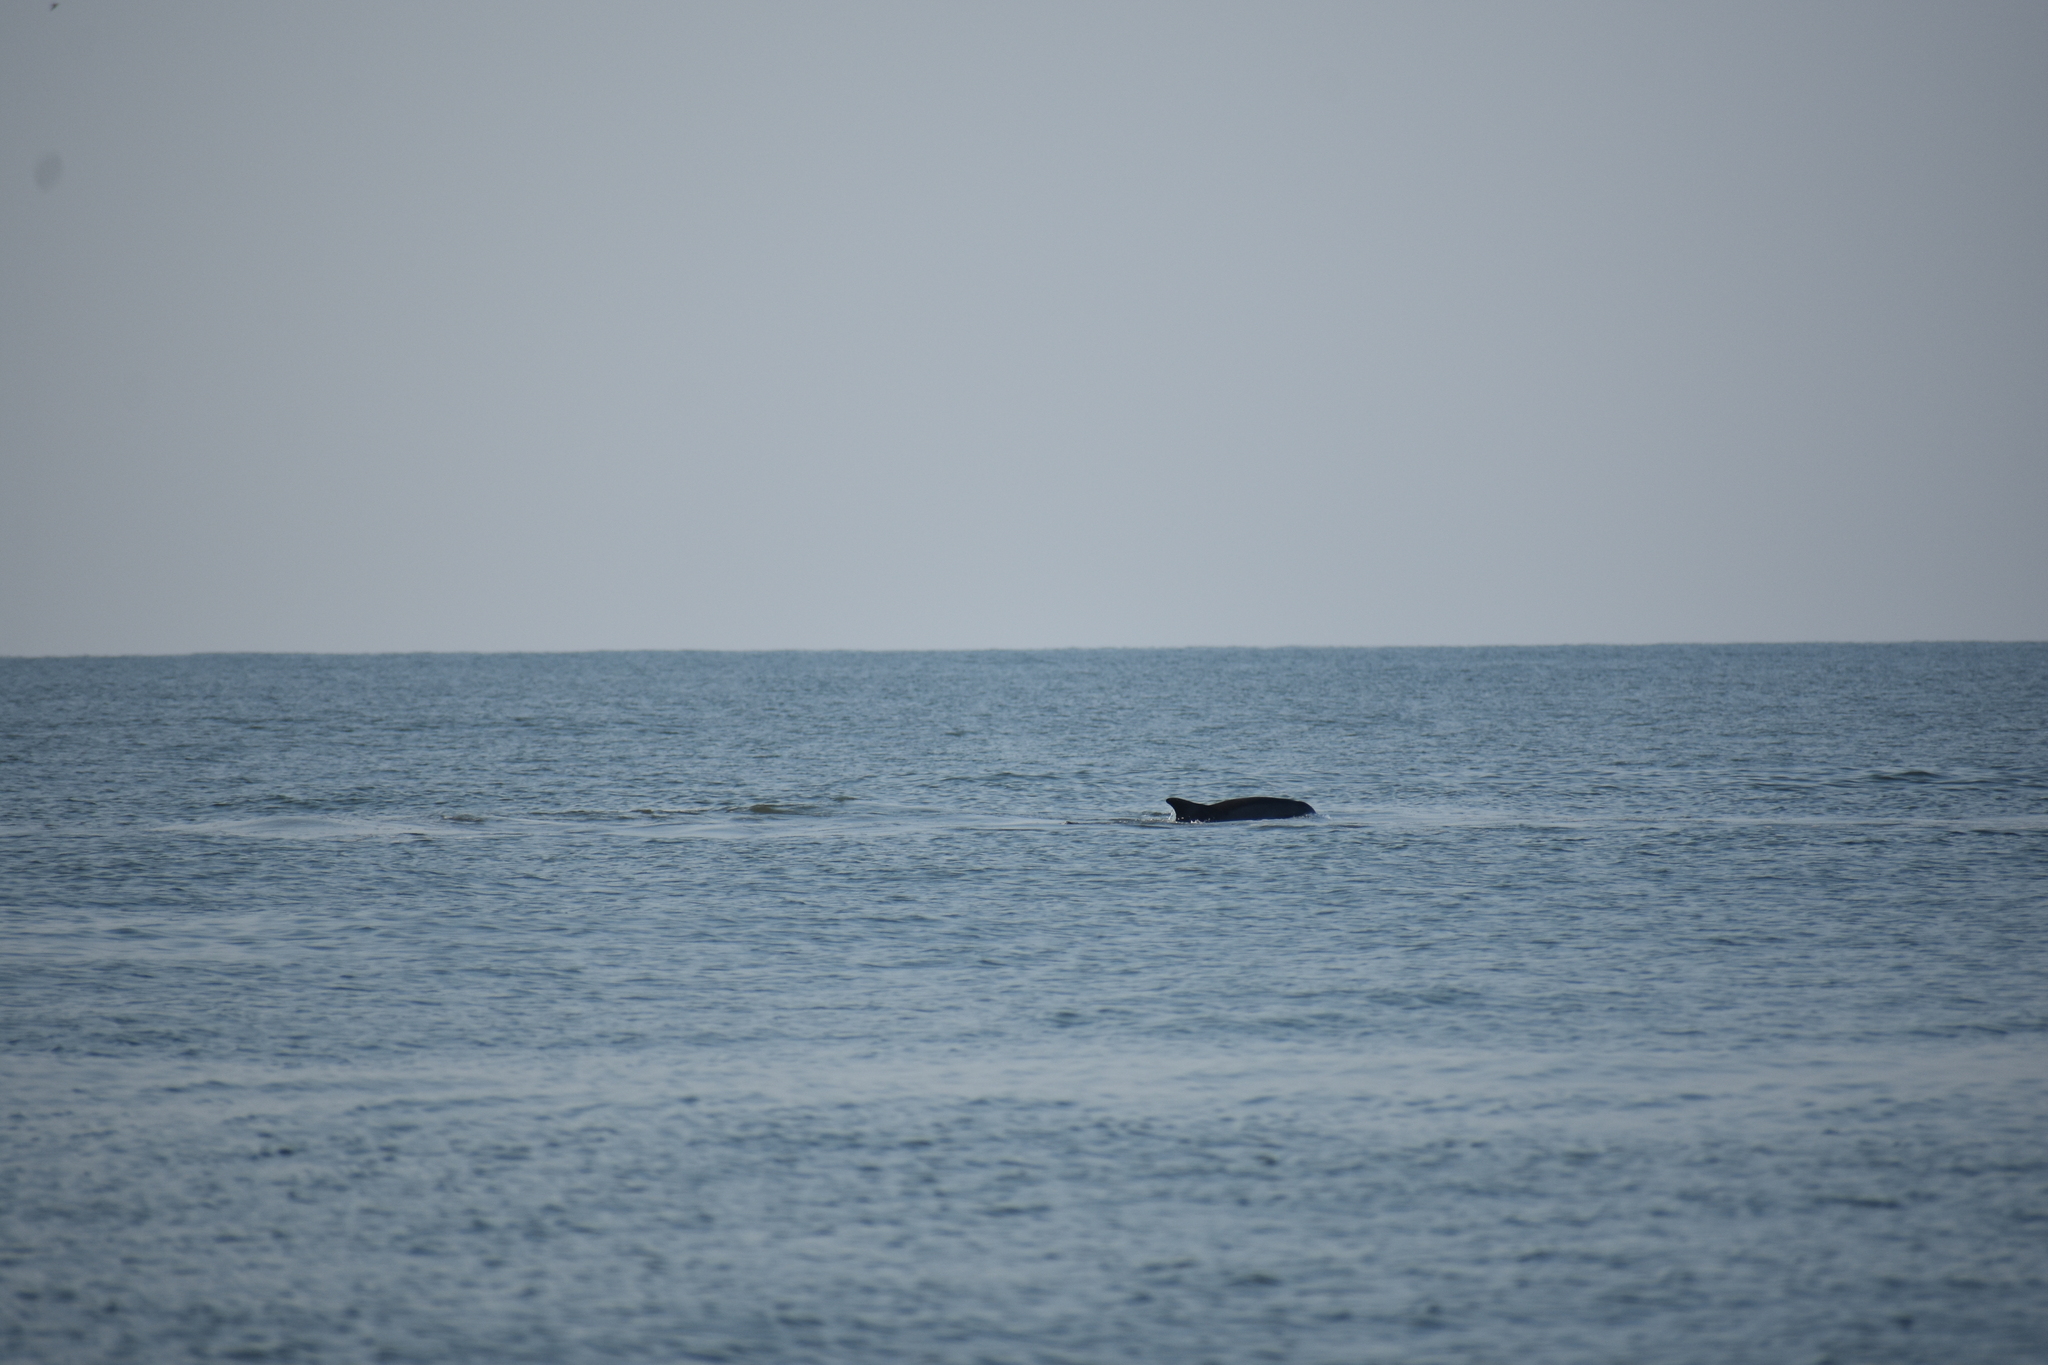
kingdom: Animalia
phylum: Chordata
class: Mammalia
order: Cetacea
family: Delphinidae
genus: Tursiops
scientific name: Tursiops truncatus
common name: Bottlenose dolphin
